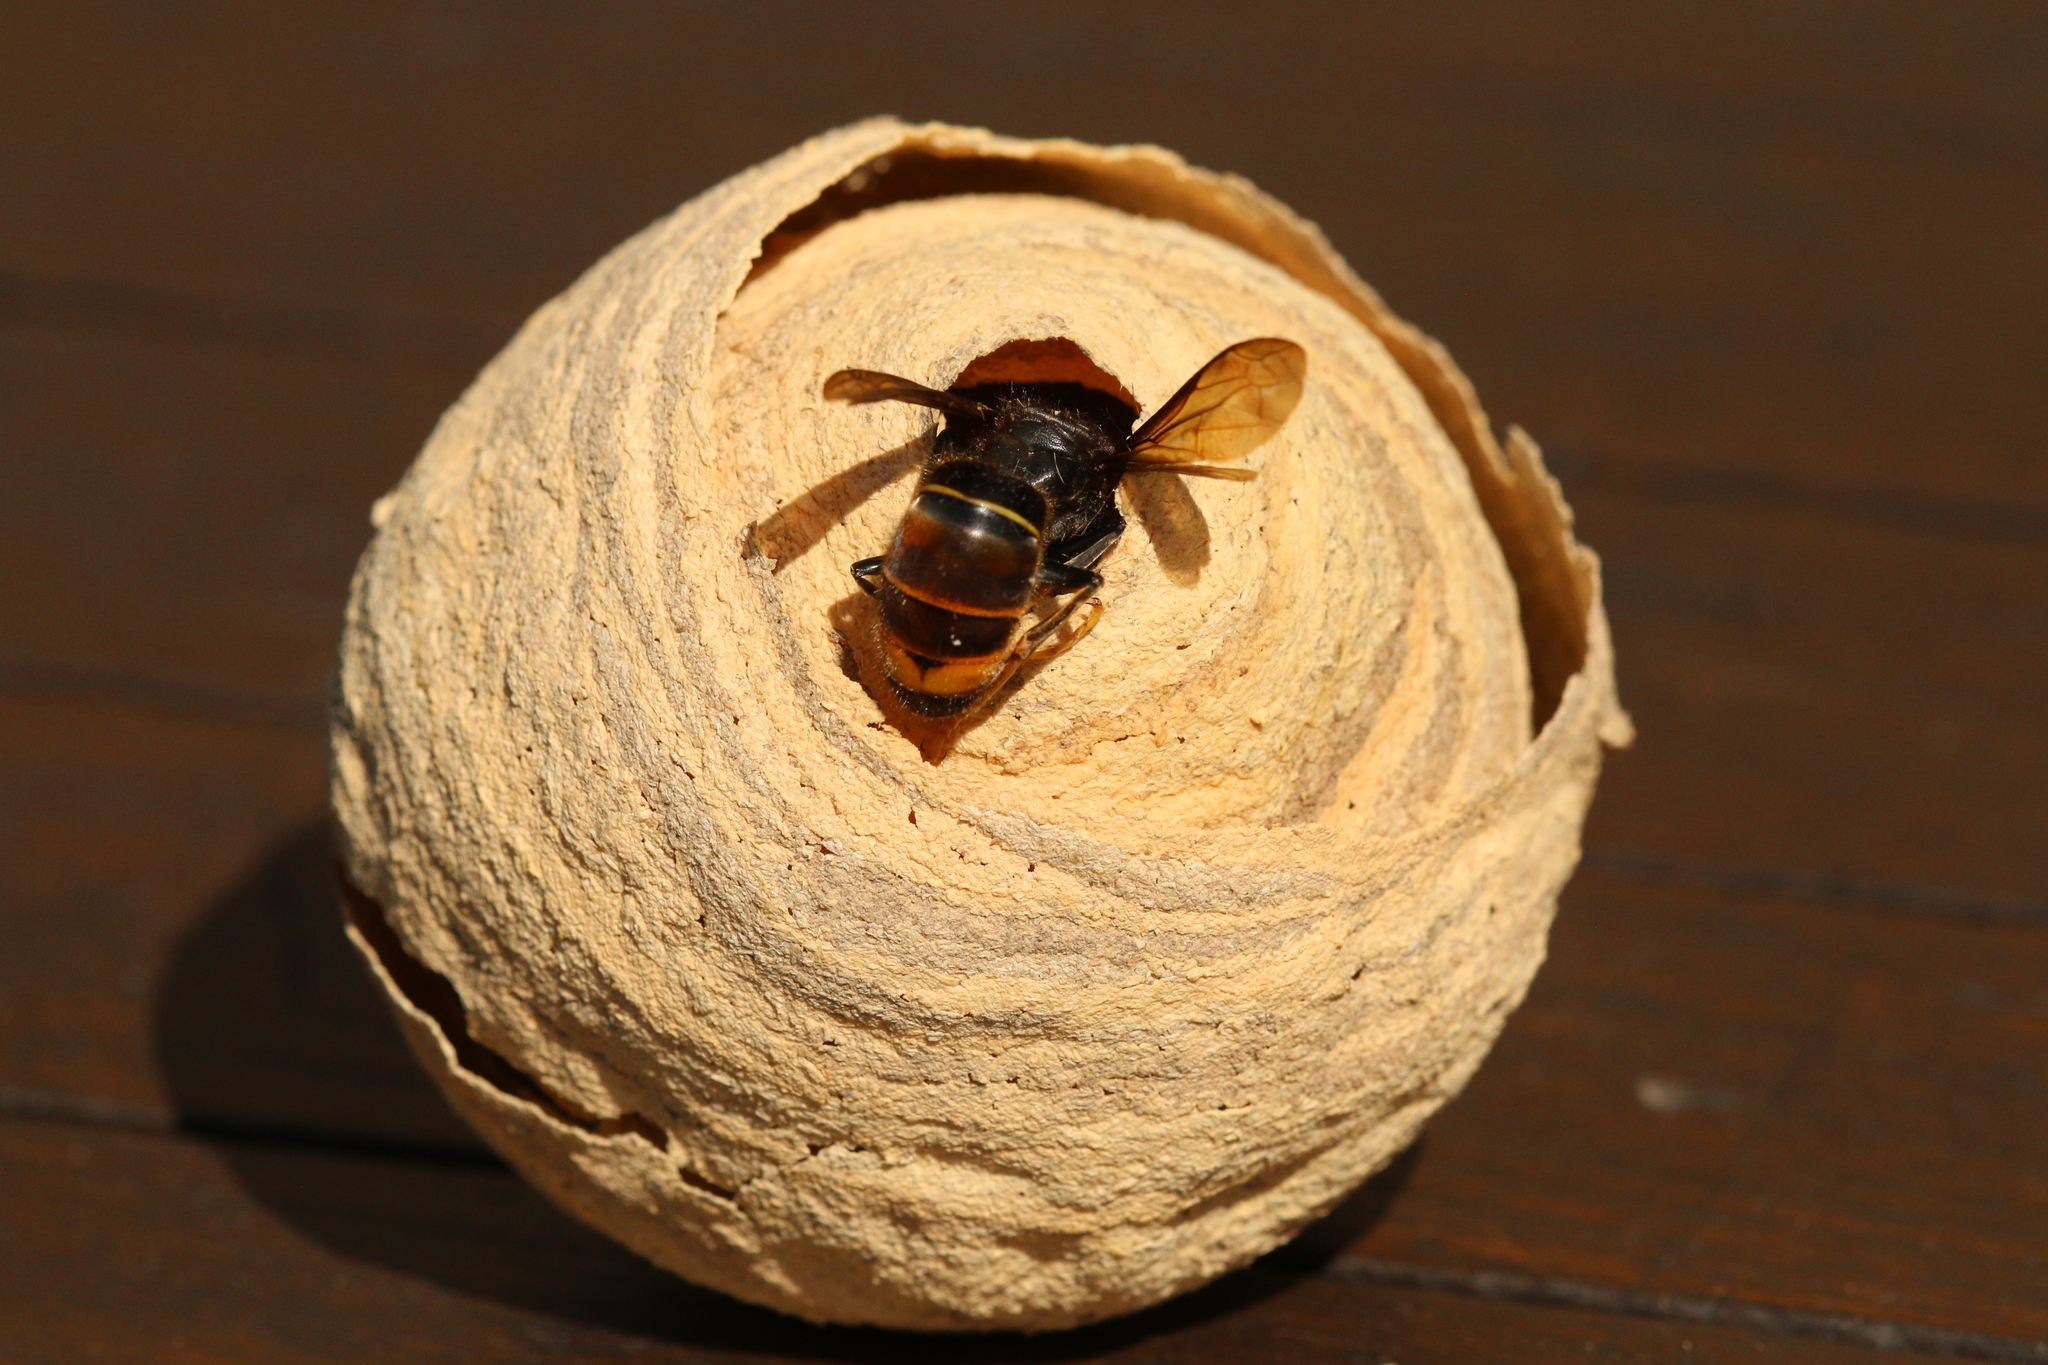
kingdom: Animalia
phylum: Arthropoda
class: Insecta
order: Hymenoptera
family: Vespidae
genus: Vespa
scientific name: Vespa velutina
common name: Asian hornet
